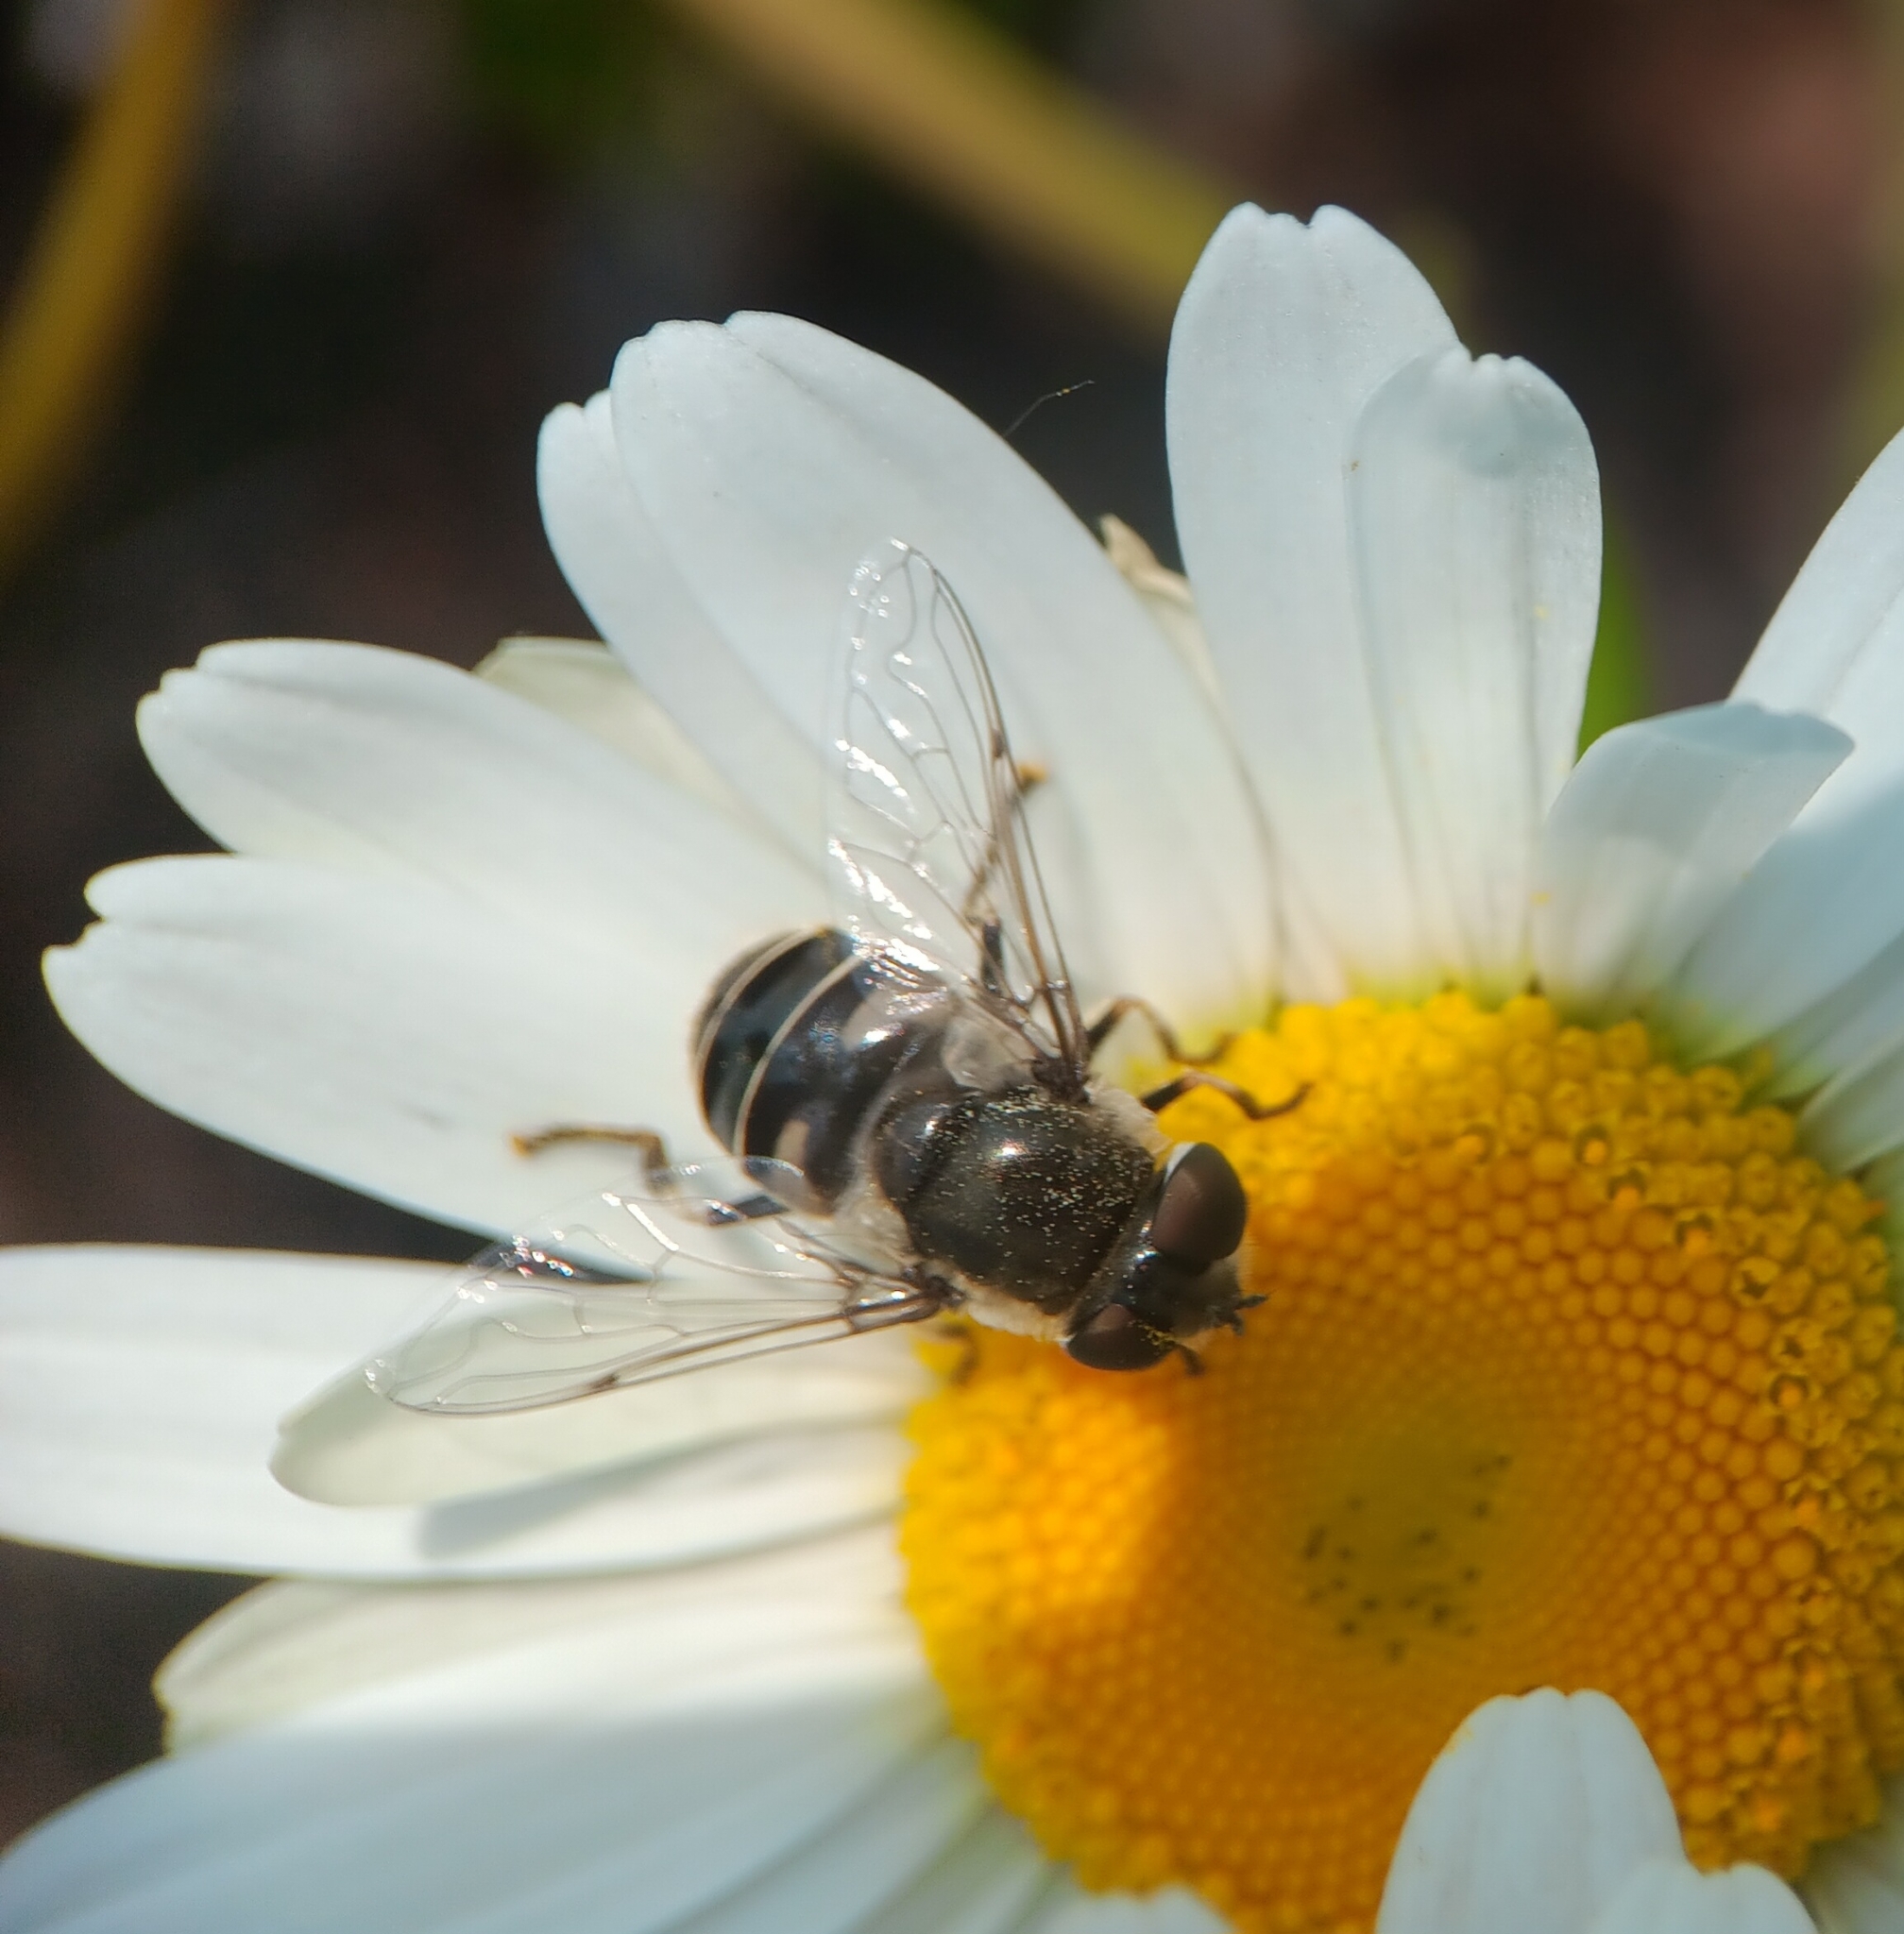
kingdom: Animalia
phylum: Arthropoda
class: Insecta
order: Diptera
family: Syrphidae
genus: Eristalis
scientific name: Eristalis dimidiata
